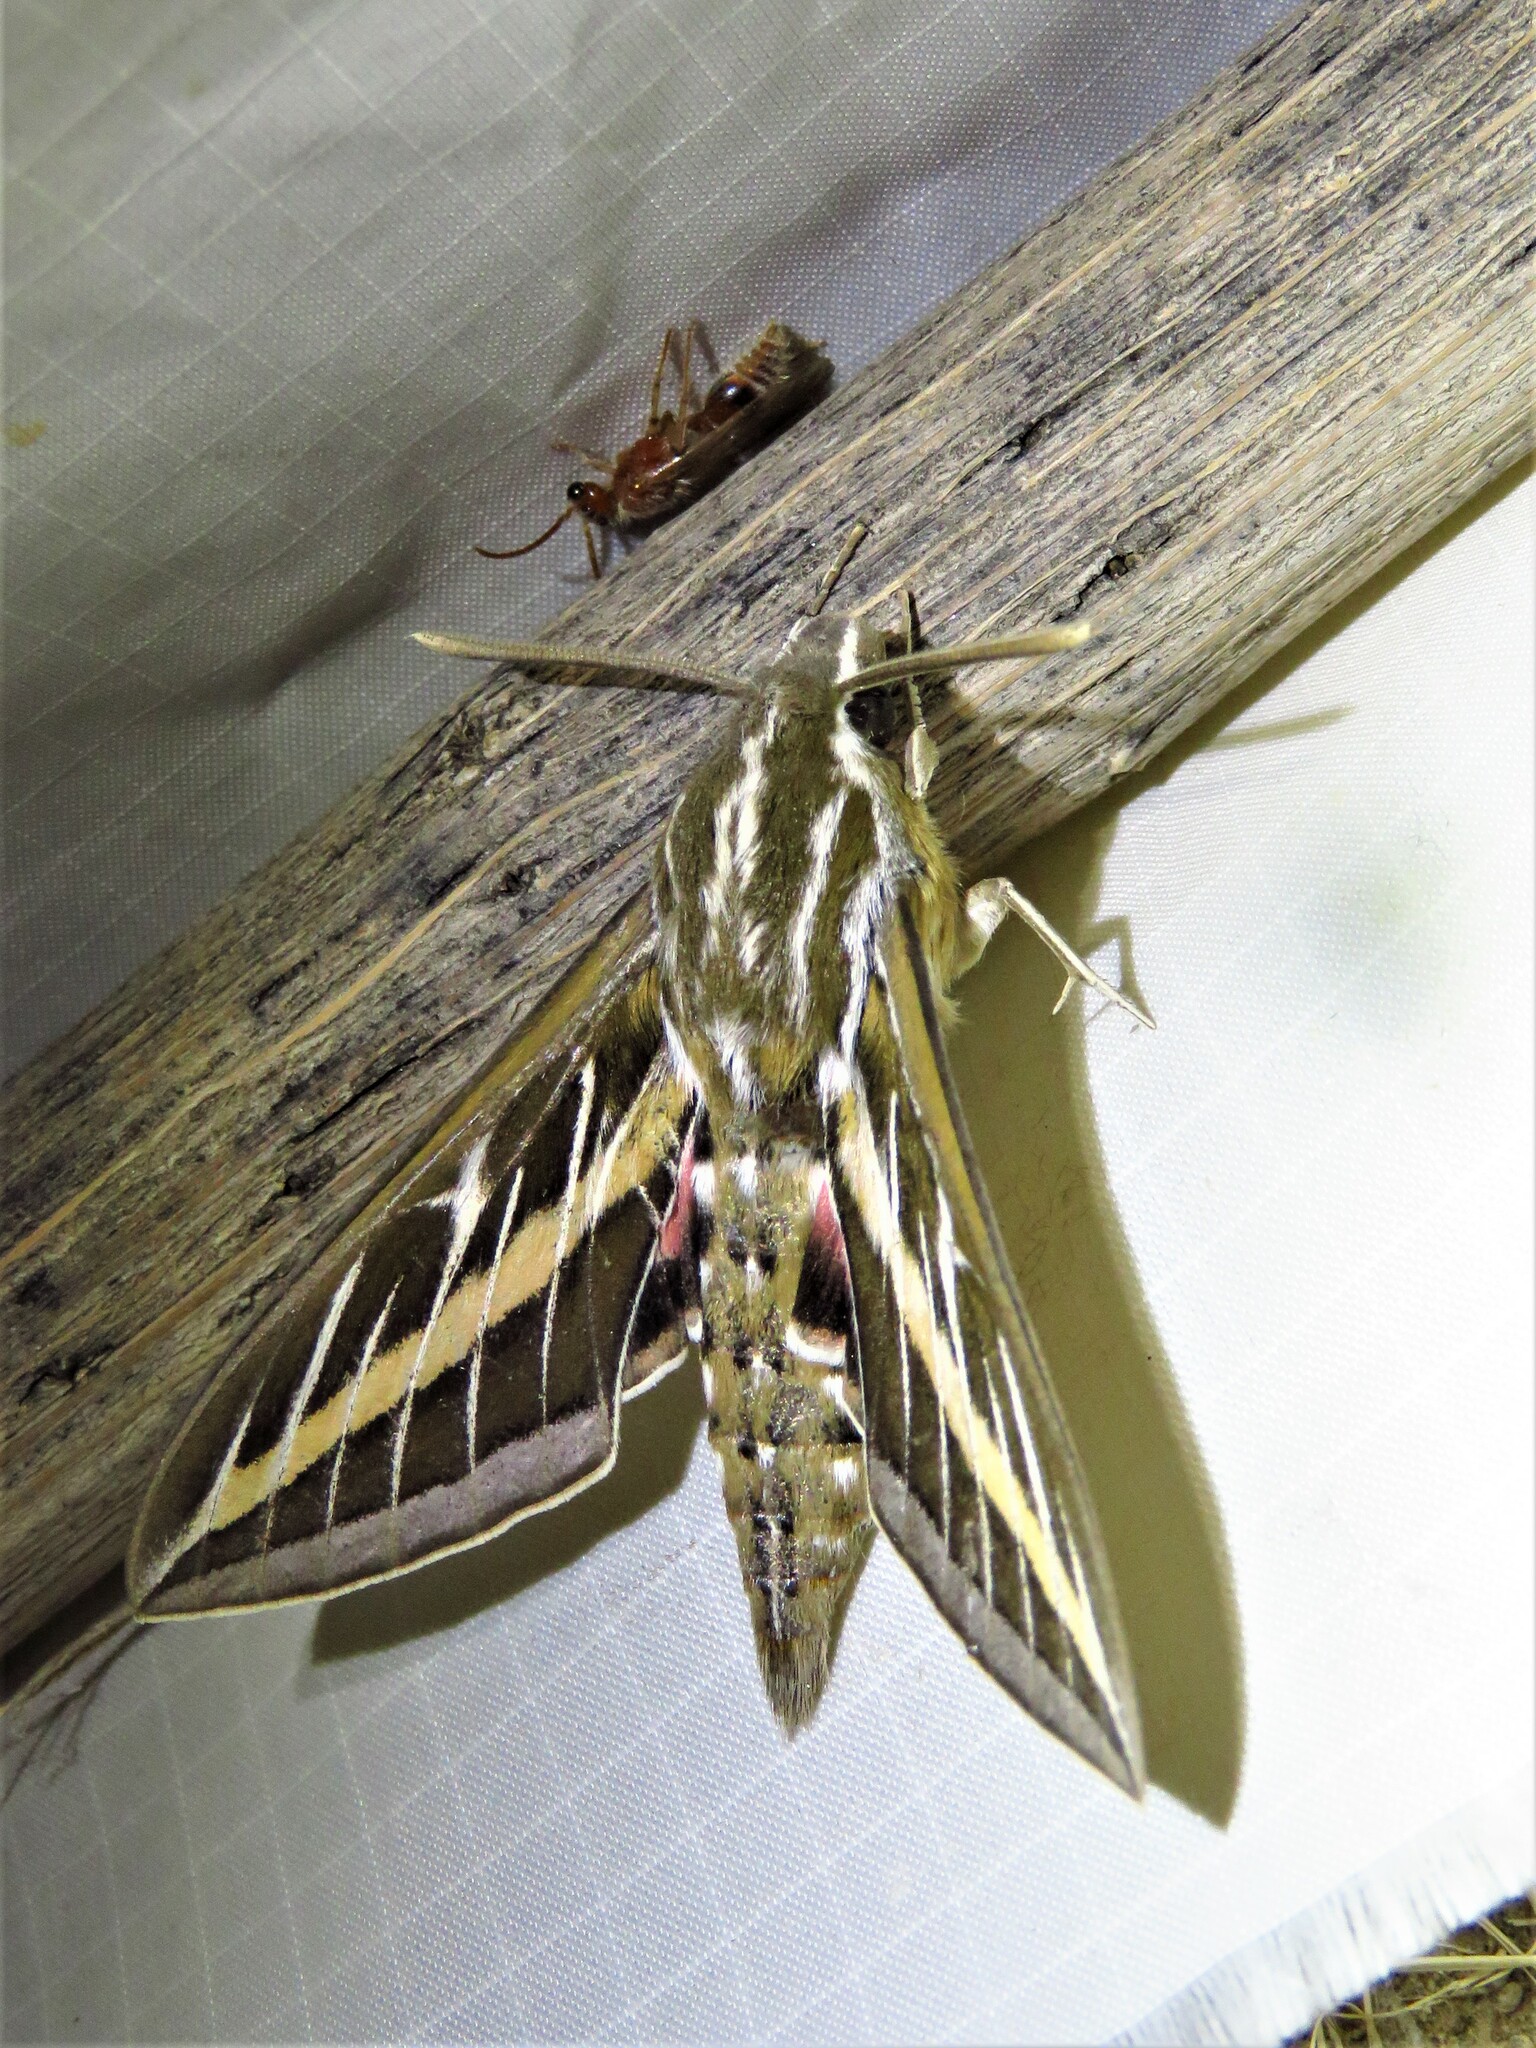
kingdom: Animalia
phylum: Arthropoda
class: Insecta
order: Lepidoptera
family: Sphingidae
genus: Hyles
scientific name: Hyles lineata
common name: White-lined sphinx
